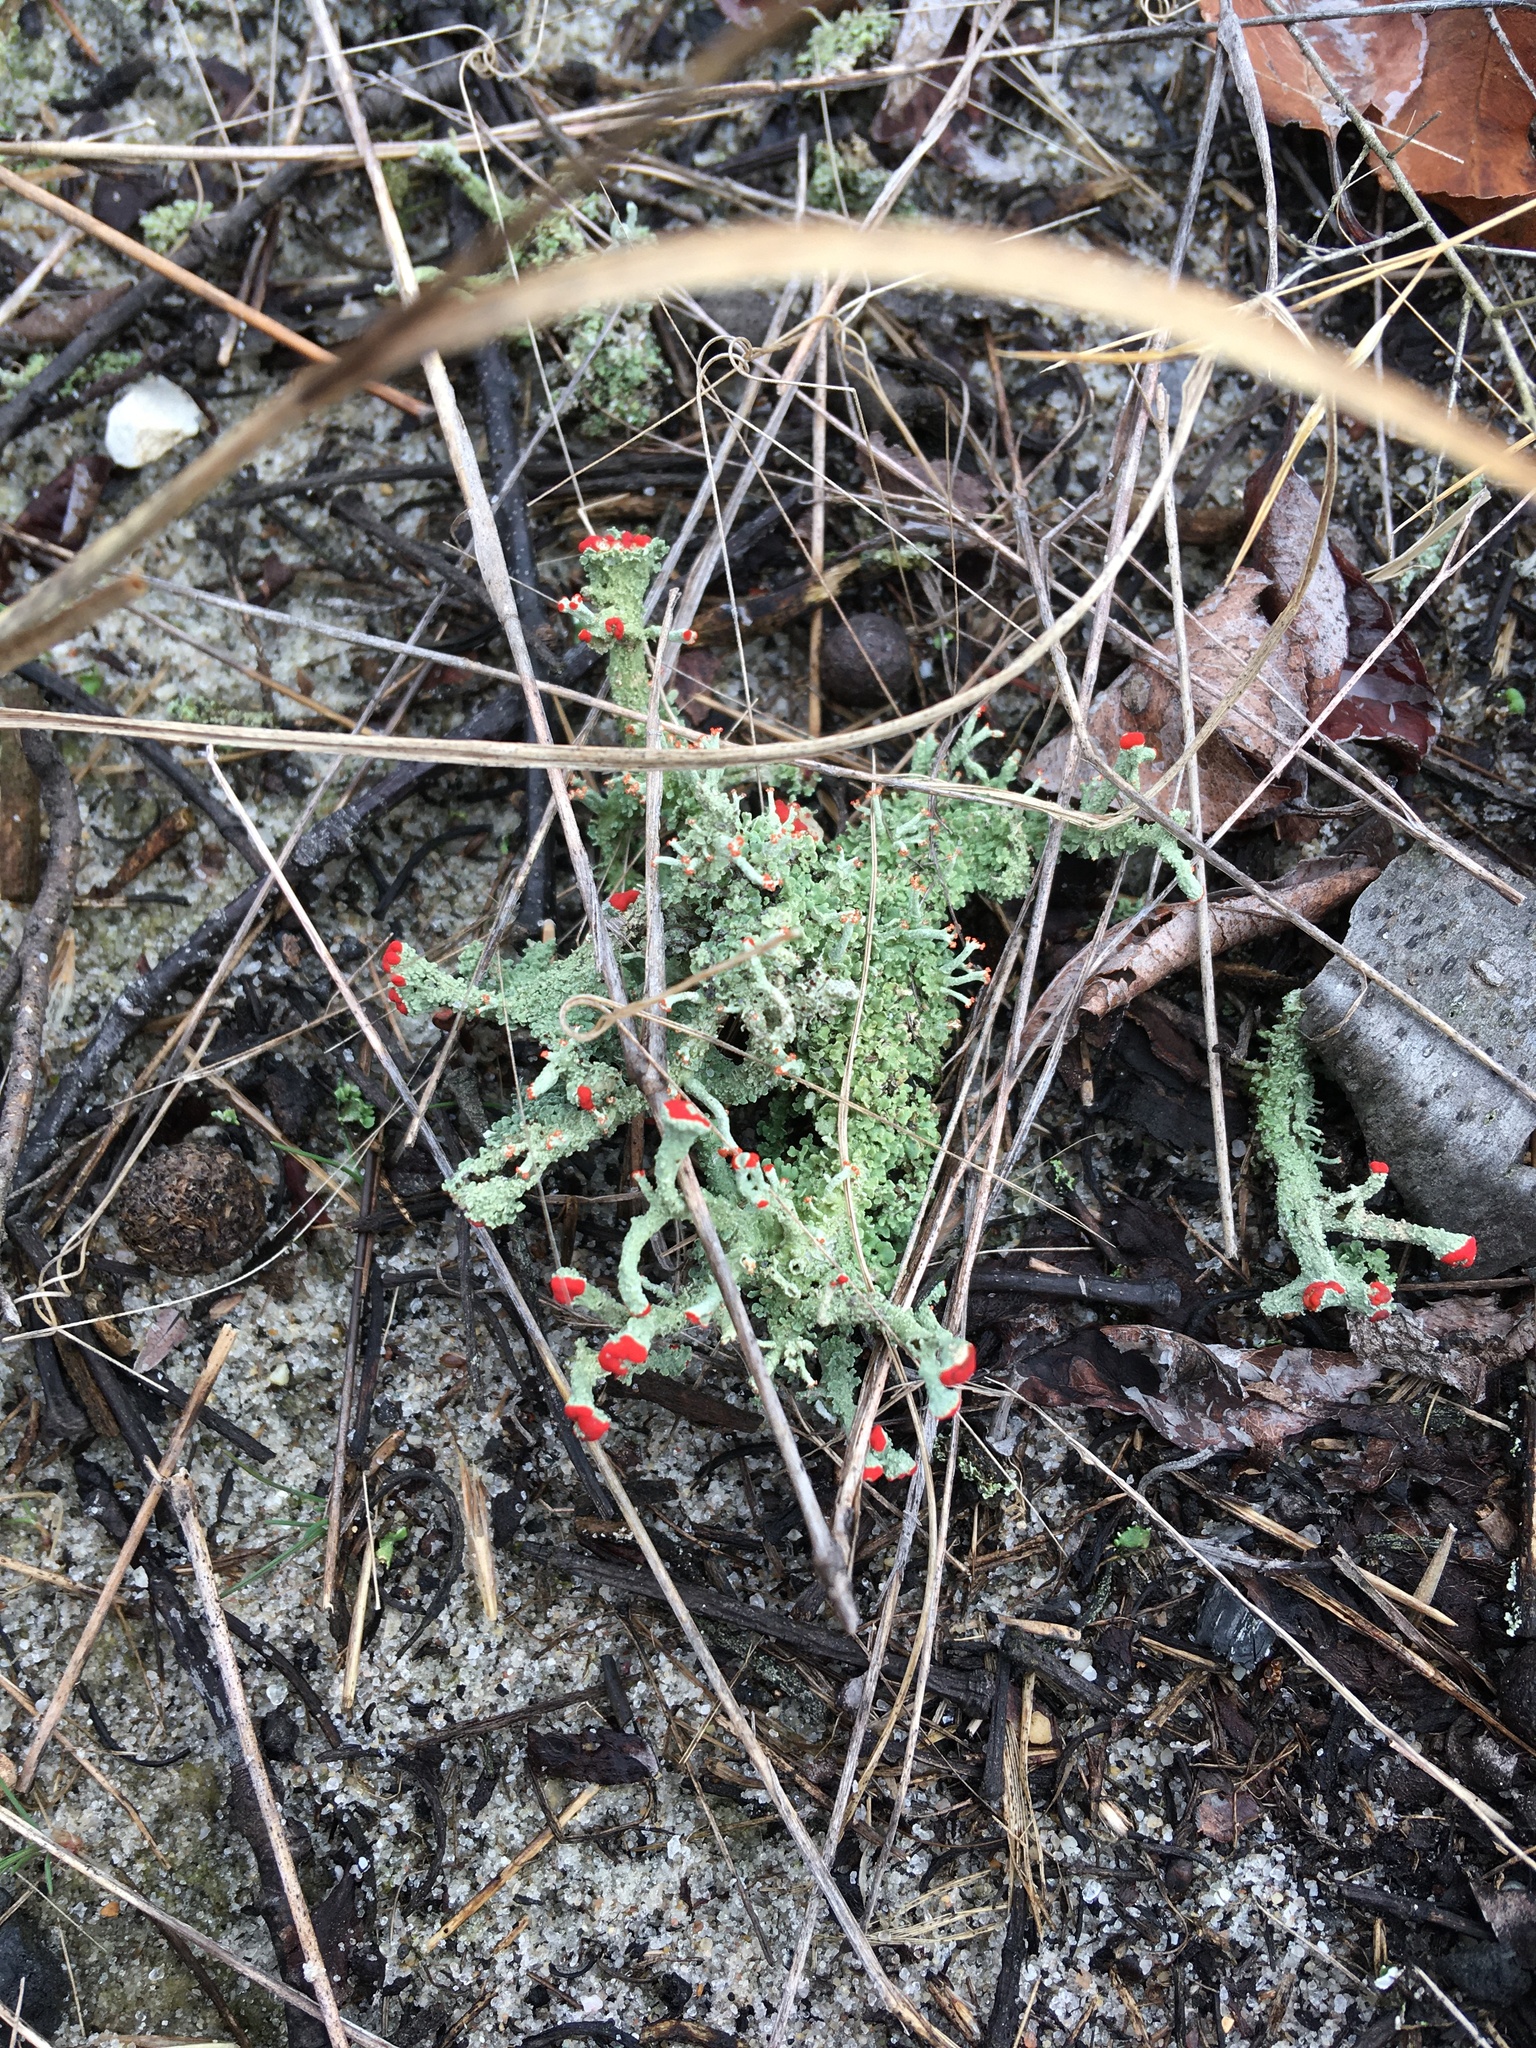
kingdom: Fungi
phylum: Ascomycota
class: Lecanoromycetes
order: Lecanorales
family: Cladoniaceae
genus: Cladonia
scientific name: Cladonia cristatella
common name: British soldier lichen
